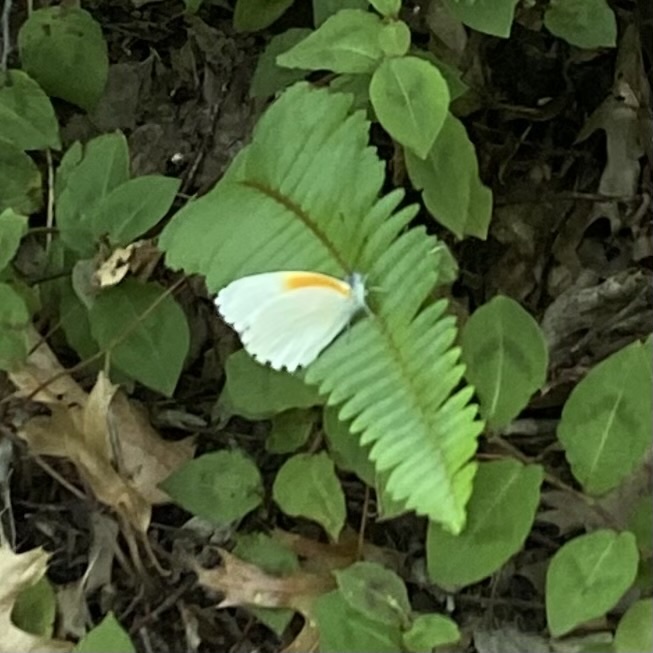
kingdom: Animalia
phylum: Arthropoda
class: Insecta
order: Lepidoptera
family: Pieridae
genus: Mylothris
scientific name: Mylothris rueppellii
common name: Twin dotted border
